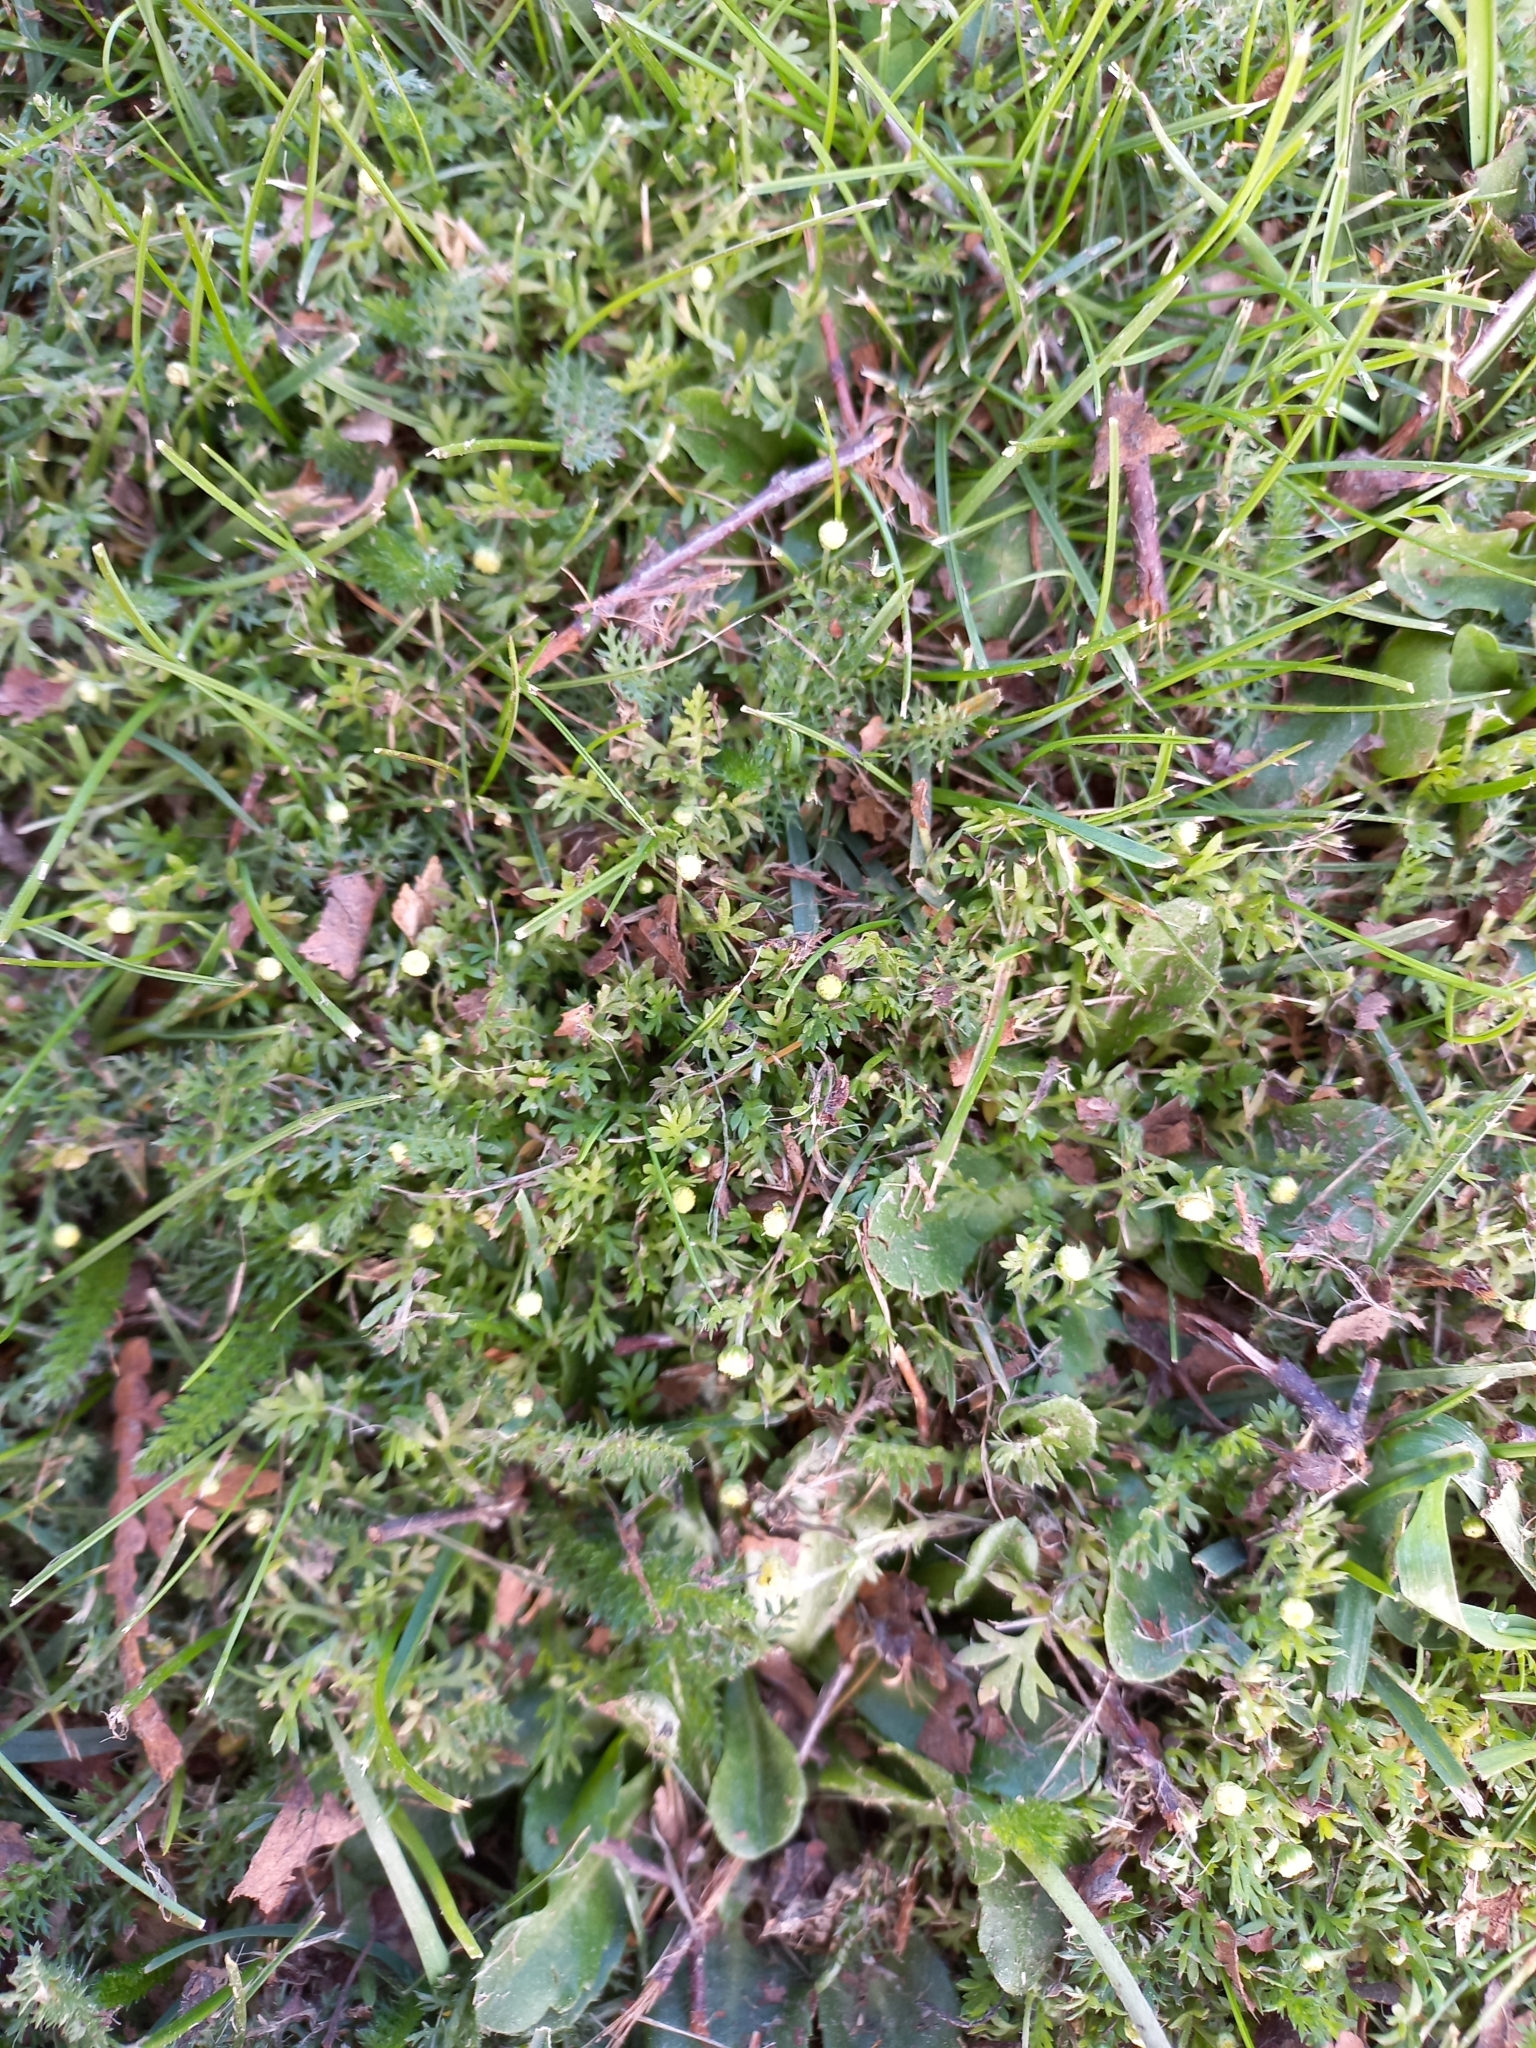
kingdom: Plantae
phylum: Tracheophyta
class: Magnoliopsida
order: Asterales
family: Asteraceae
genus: Cotula
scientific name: Cotula australis
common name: Australian waterbuttons
